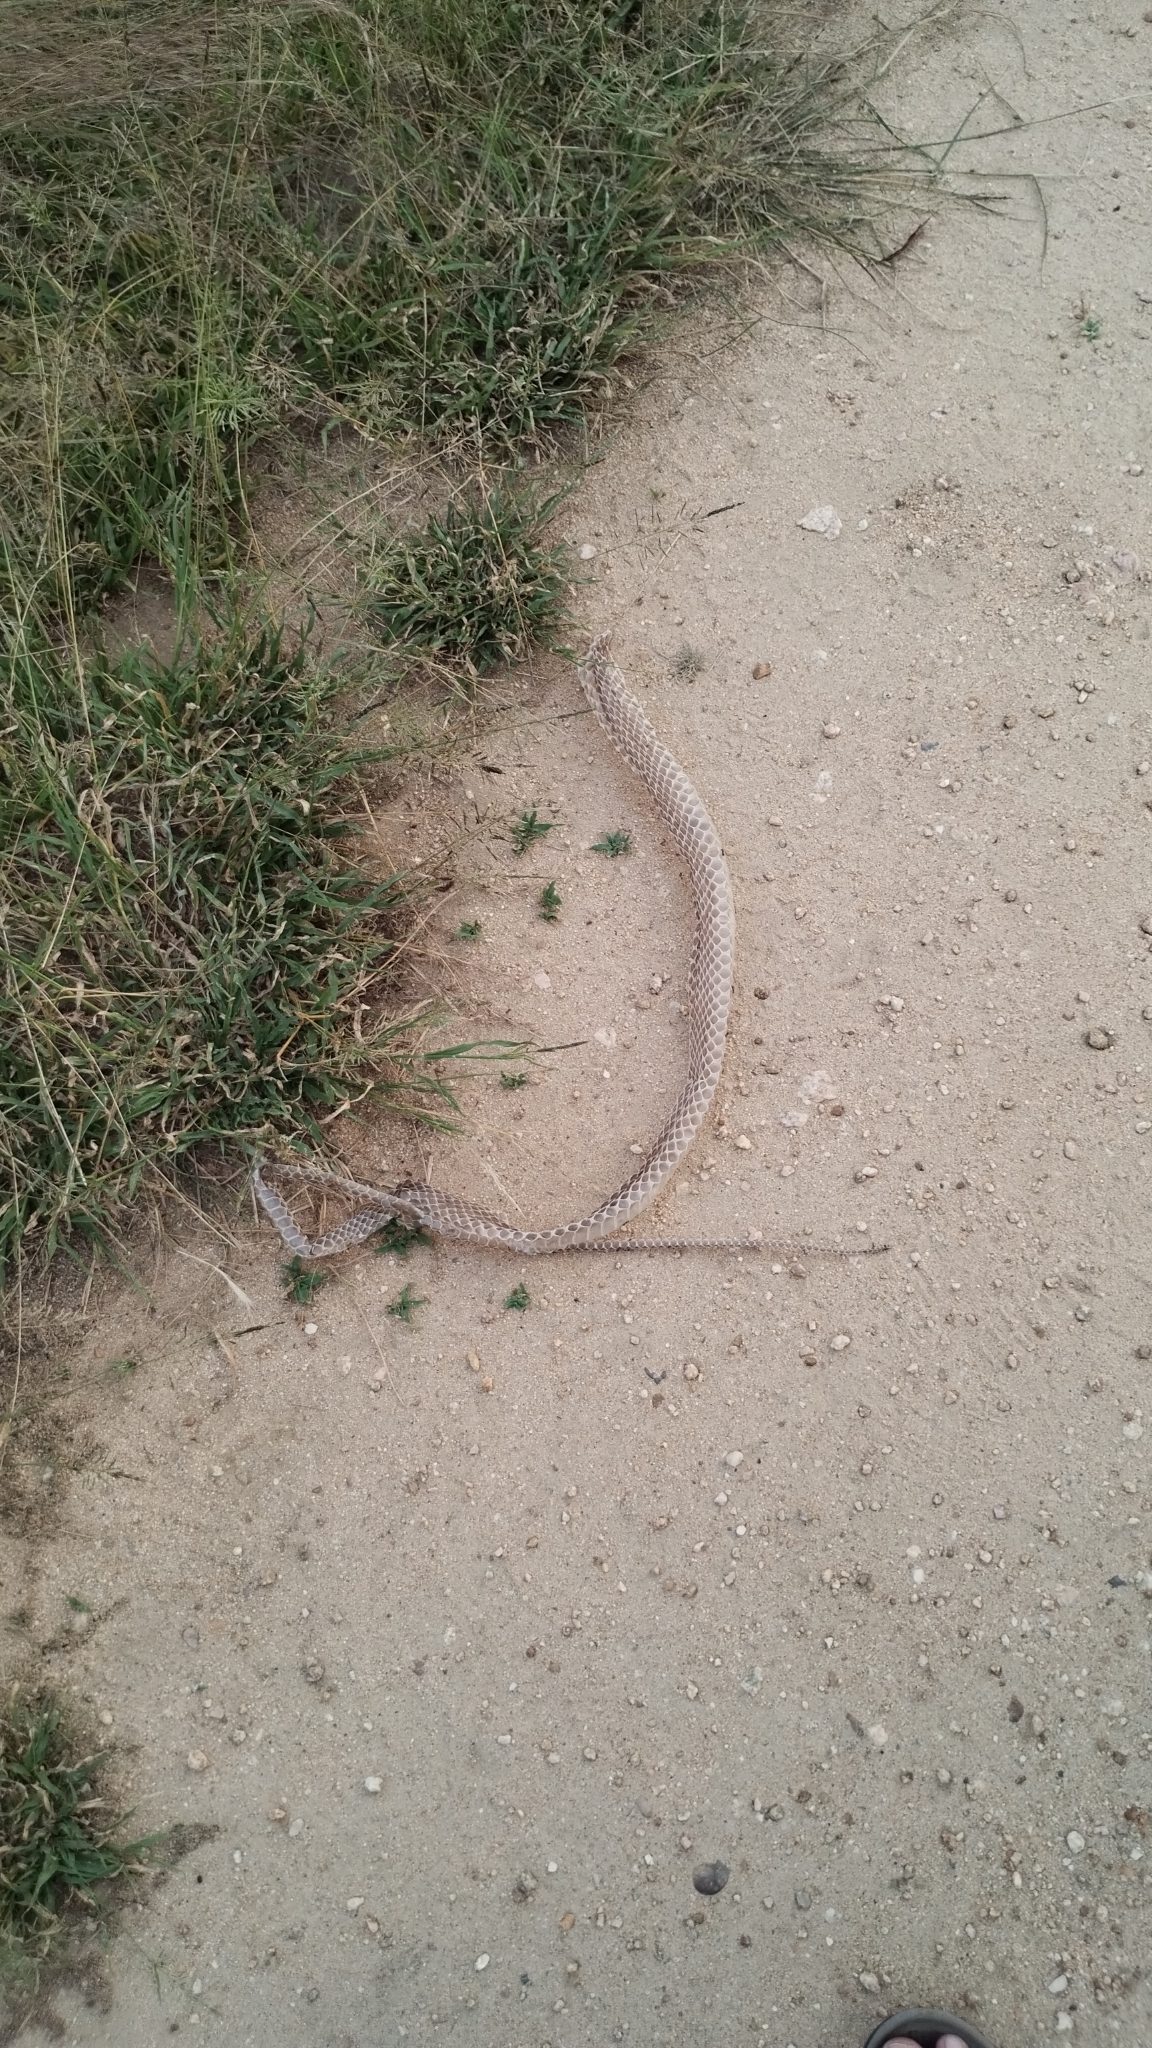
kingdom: Animalia
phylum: Chordata
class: Squamata
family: Psammophiidae
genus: Psammophis
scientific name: Psammophis mossambicus
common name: Olive grass snake
